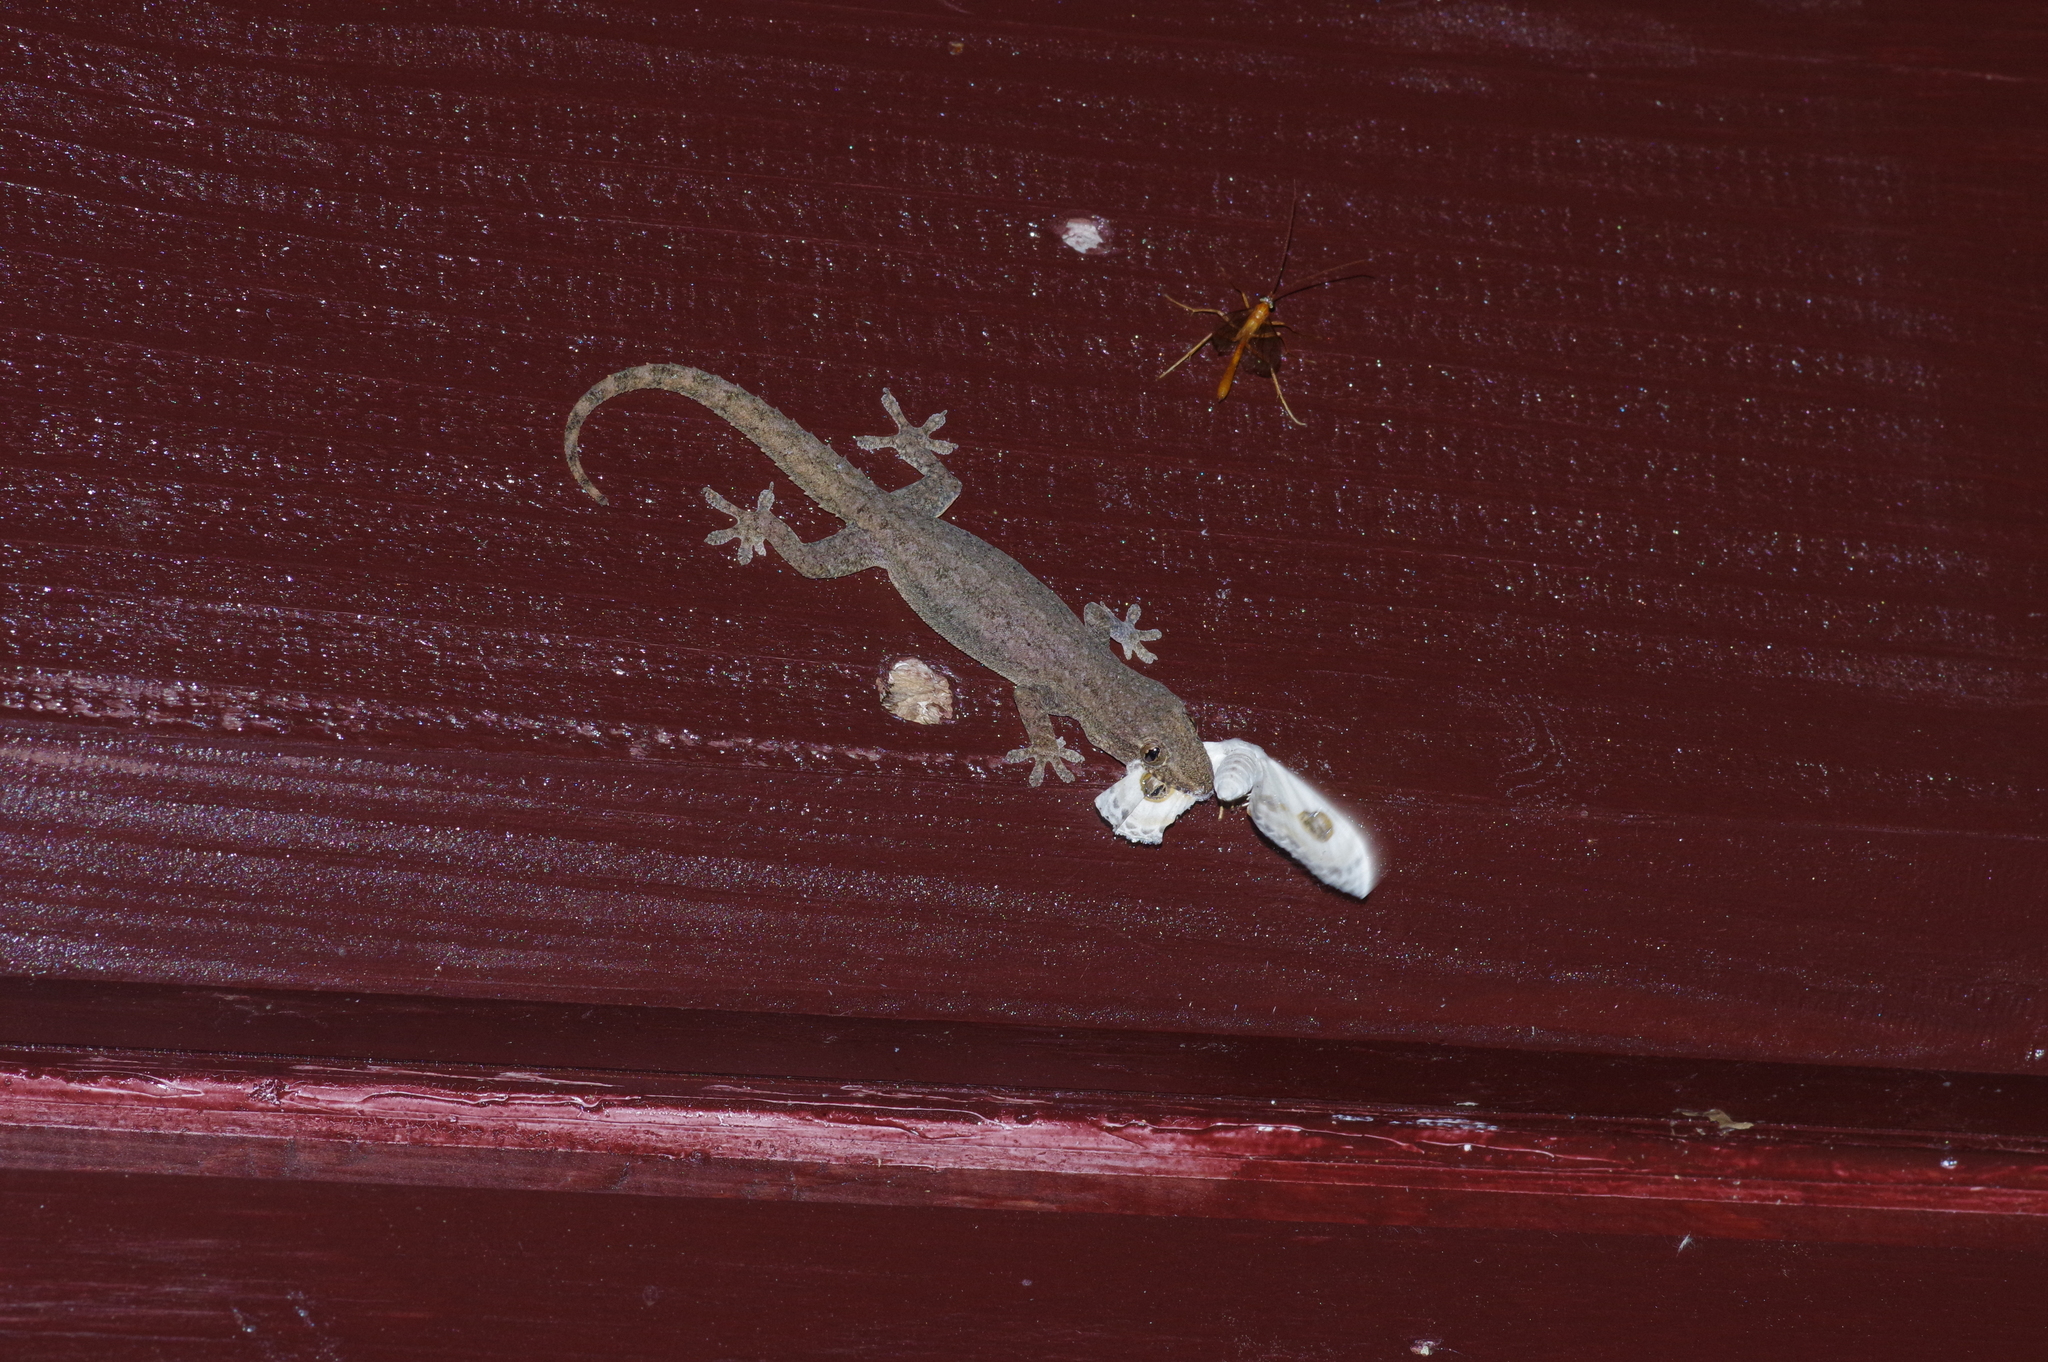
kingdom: Animalia
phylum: Arthropoda
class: Insecta
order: Lepidoptera
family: Geometridae
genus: Problepsis
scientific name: Problepsis albidior
